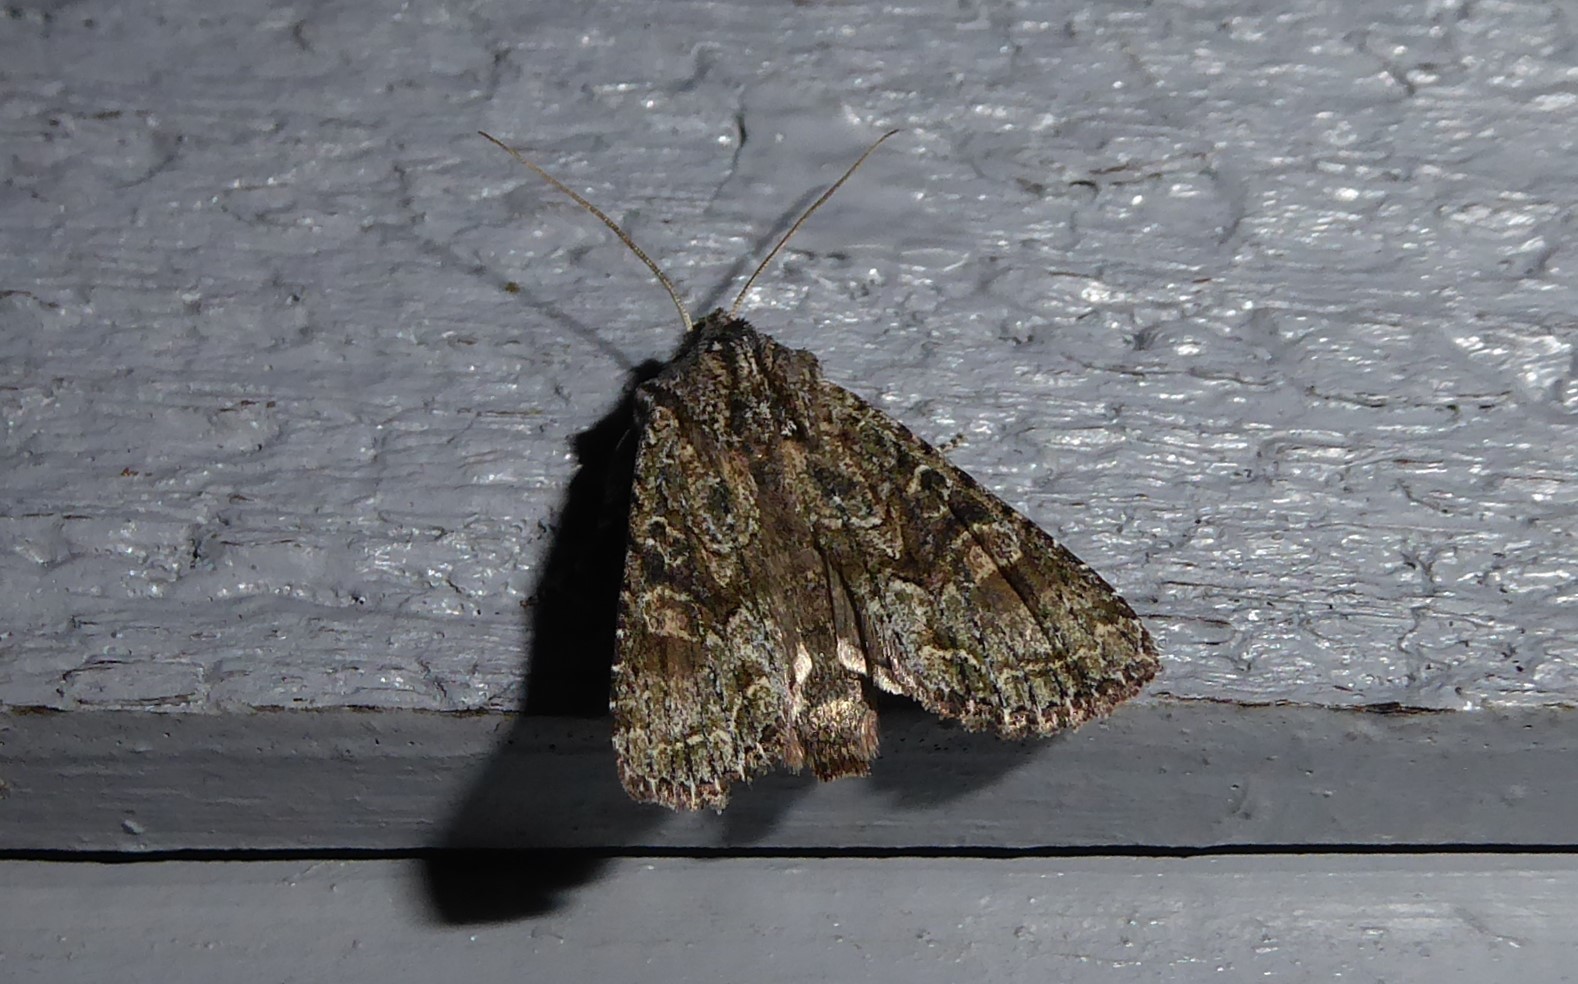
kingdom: Animalia
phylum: Arthropoda
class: Insecta
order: Lepidoptera
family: Noctuidae
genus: Ichneutica
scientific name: Ichneutica mutans
